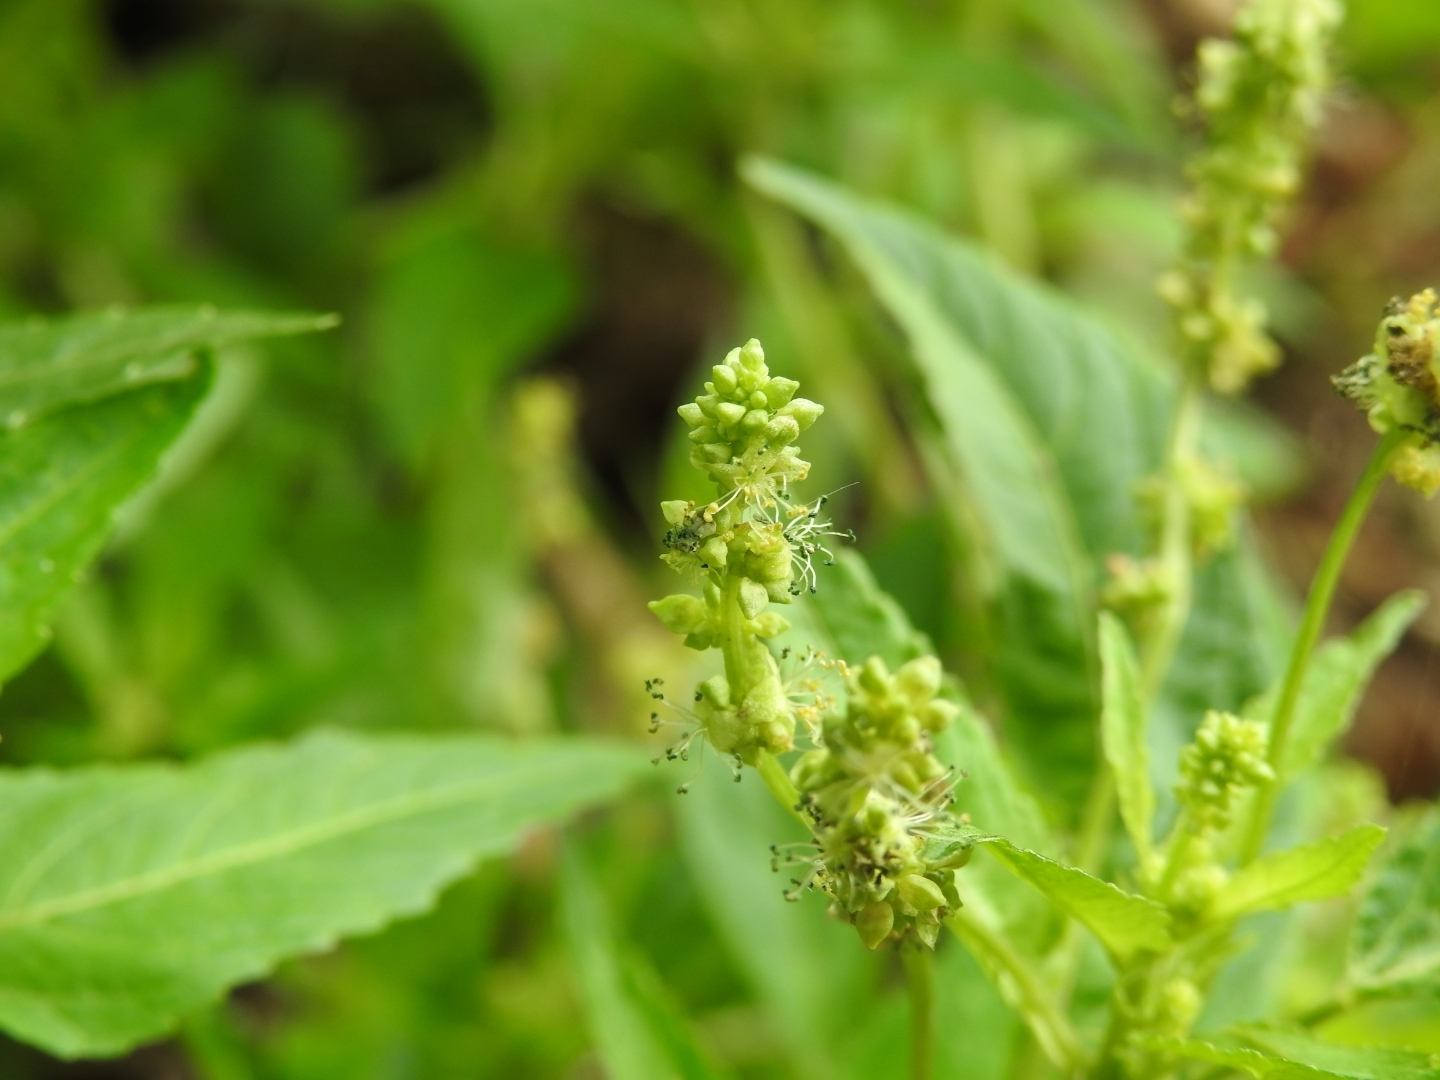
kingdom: Plantae
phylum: Tracheophyta
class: Magnoliopsida
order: Malpighiales
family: Euphorbiaceae
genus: Mercurialis
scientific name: Mercurialis annua
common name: Annual mercury
